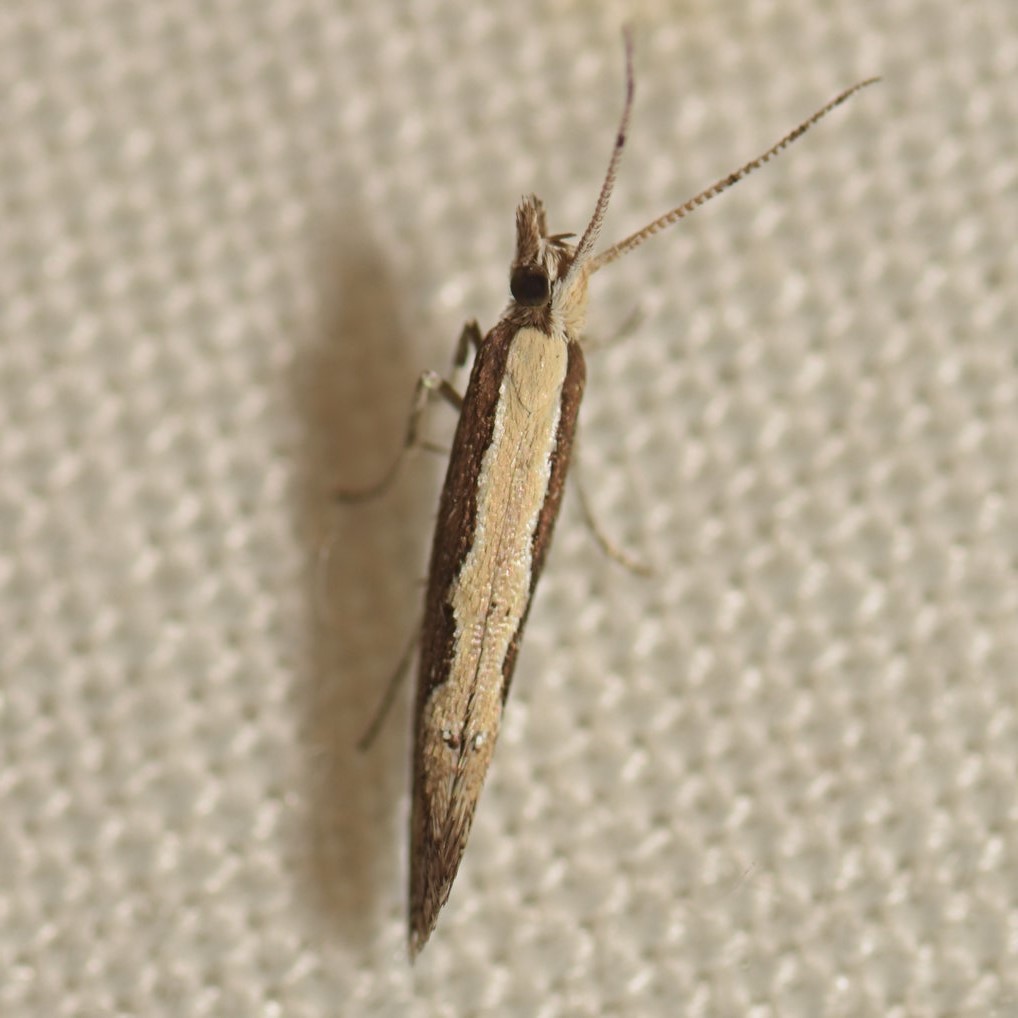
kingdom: Animalia
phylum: Arthropoda
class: Insecta
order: Lepidoptera
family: Plutellidae
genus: Plutella
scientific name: Plutella xylostella
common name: Diamond-back moth
